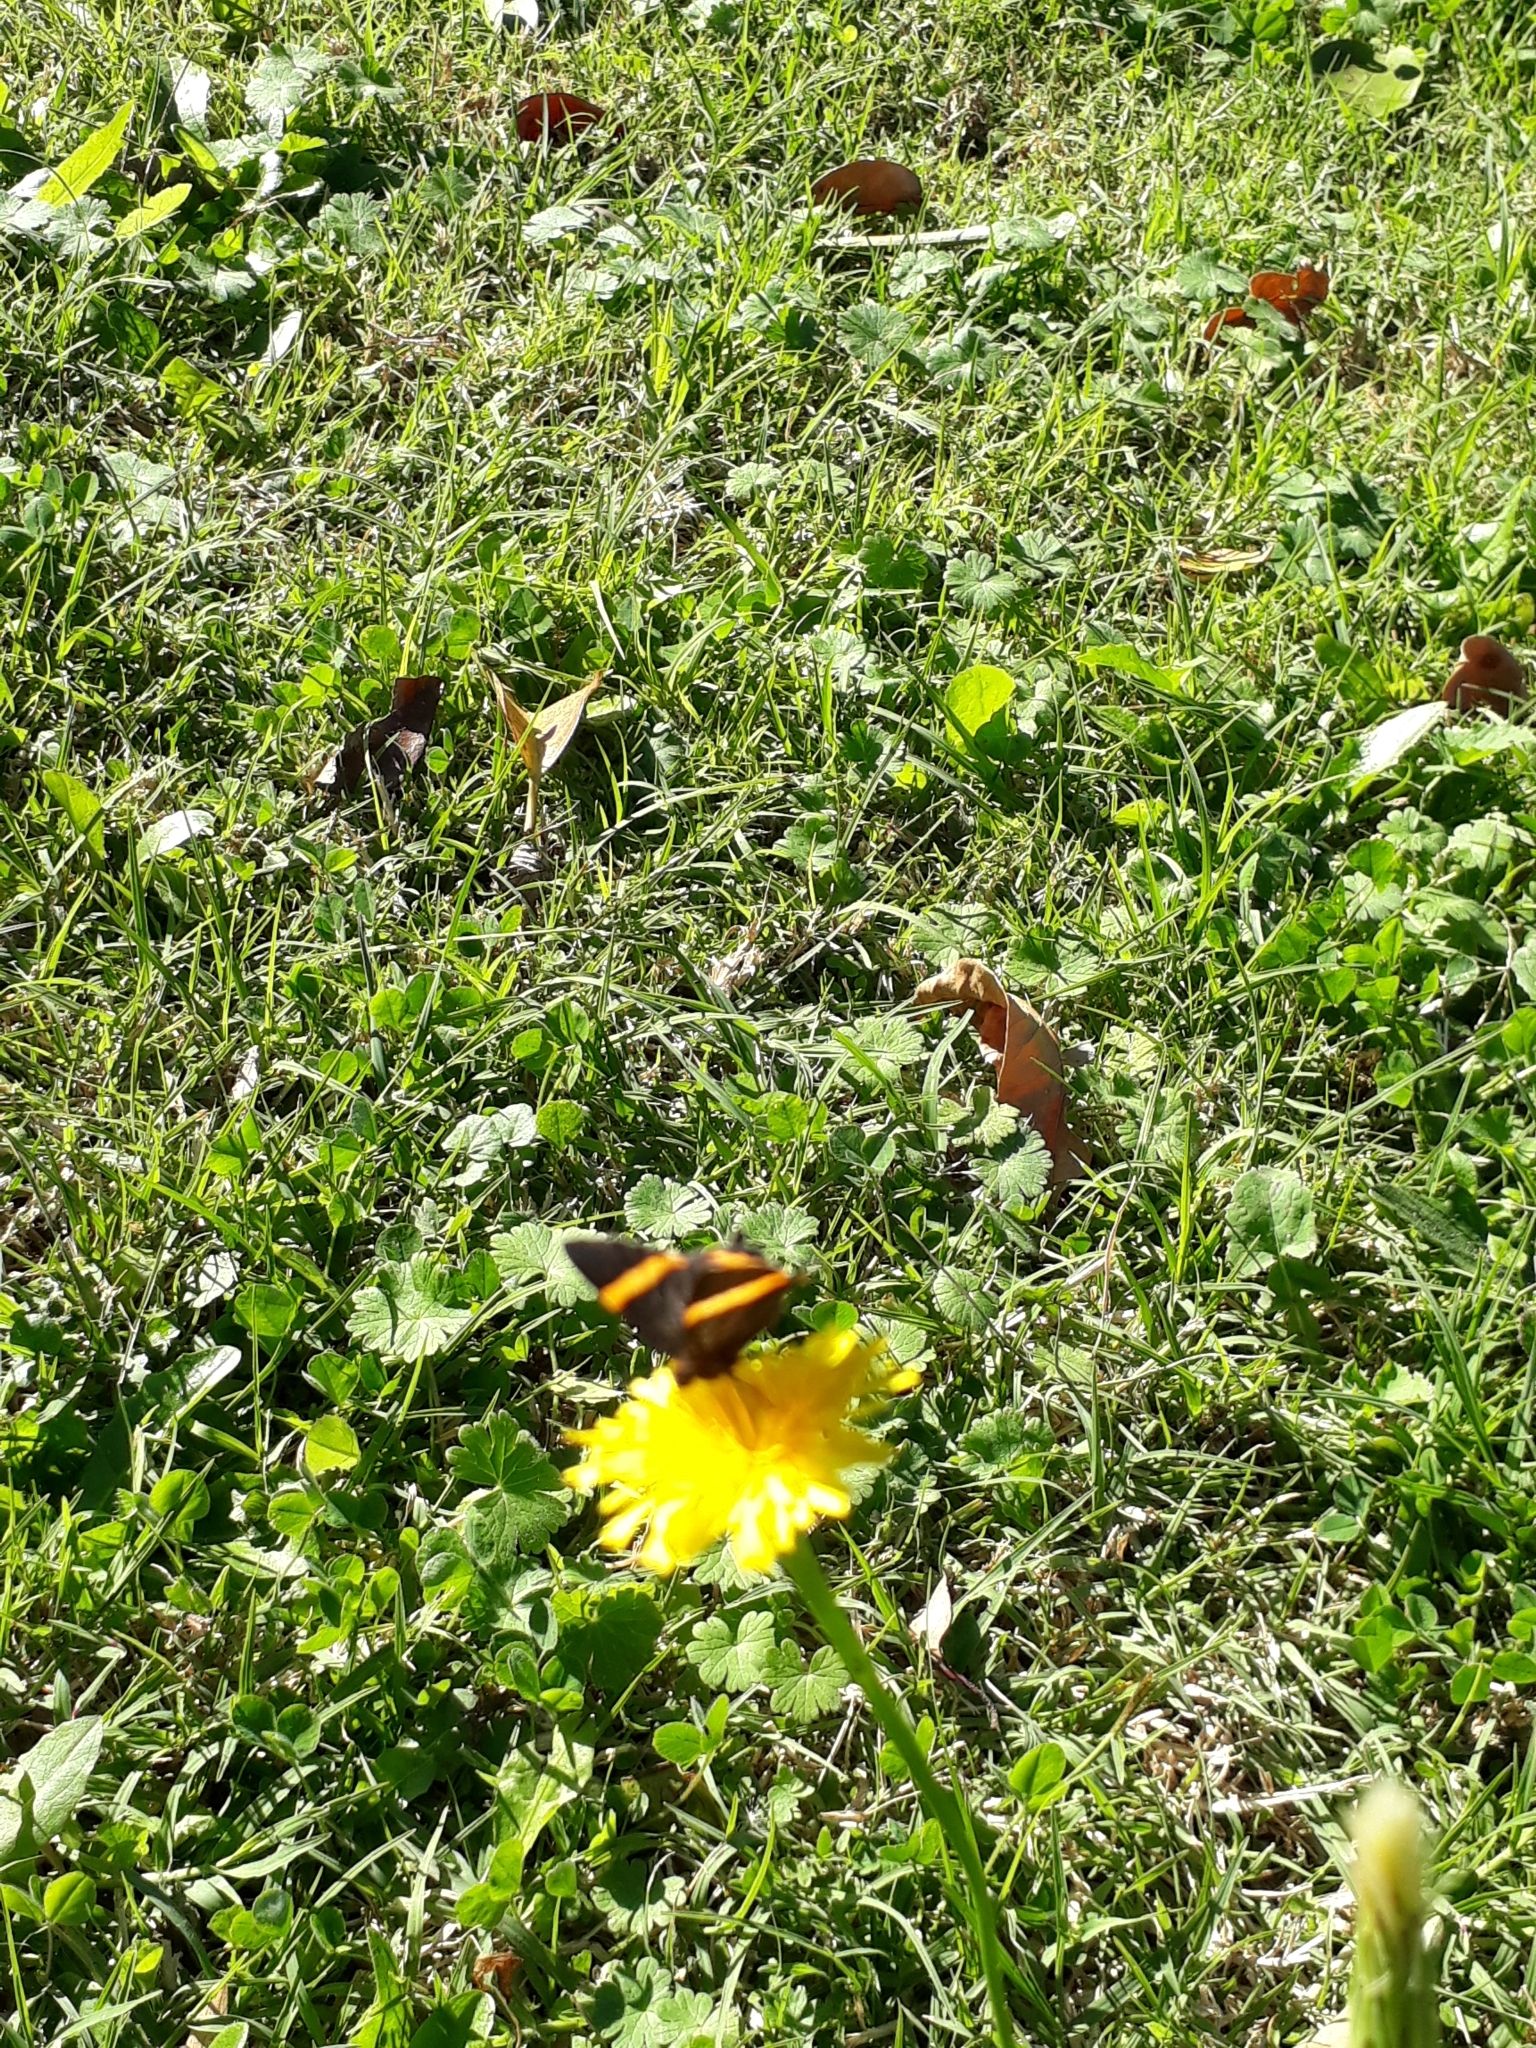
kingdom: Animalia
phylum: Arthropoda
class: Insecta
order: Lepidoptera
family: Riodinidae
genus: Riodina
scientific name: Riodina lysippoides
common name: Little dancer metalmark
